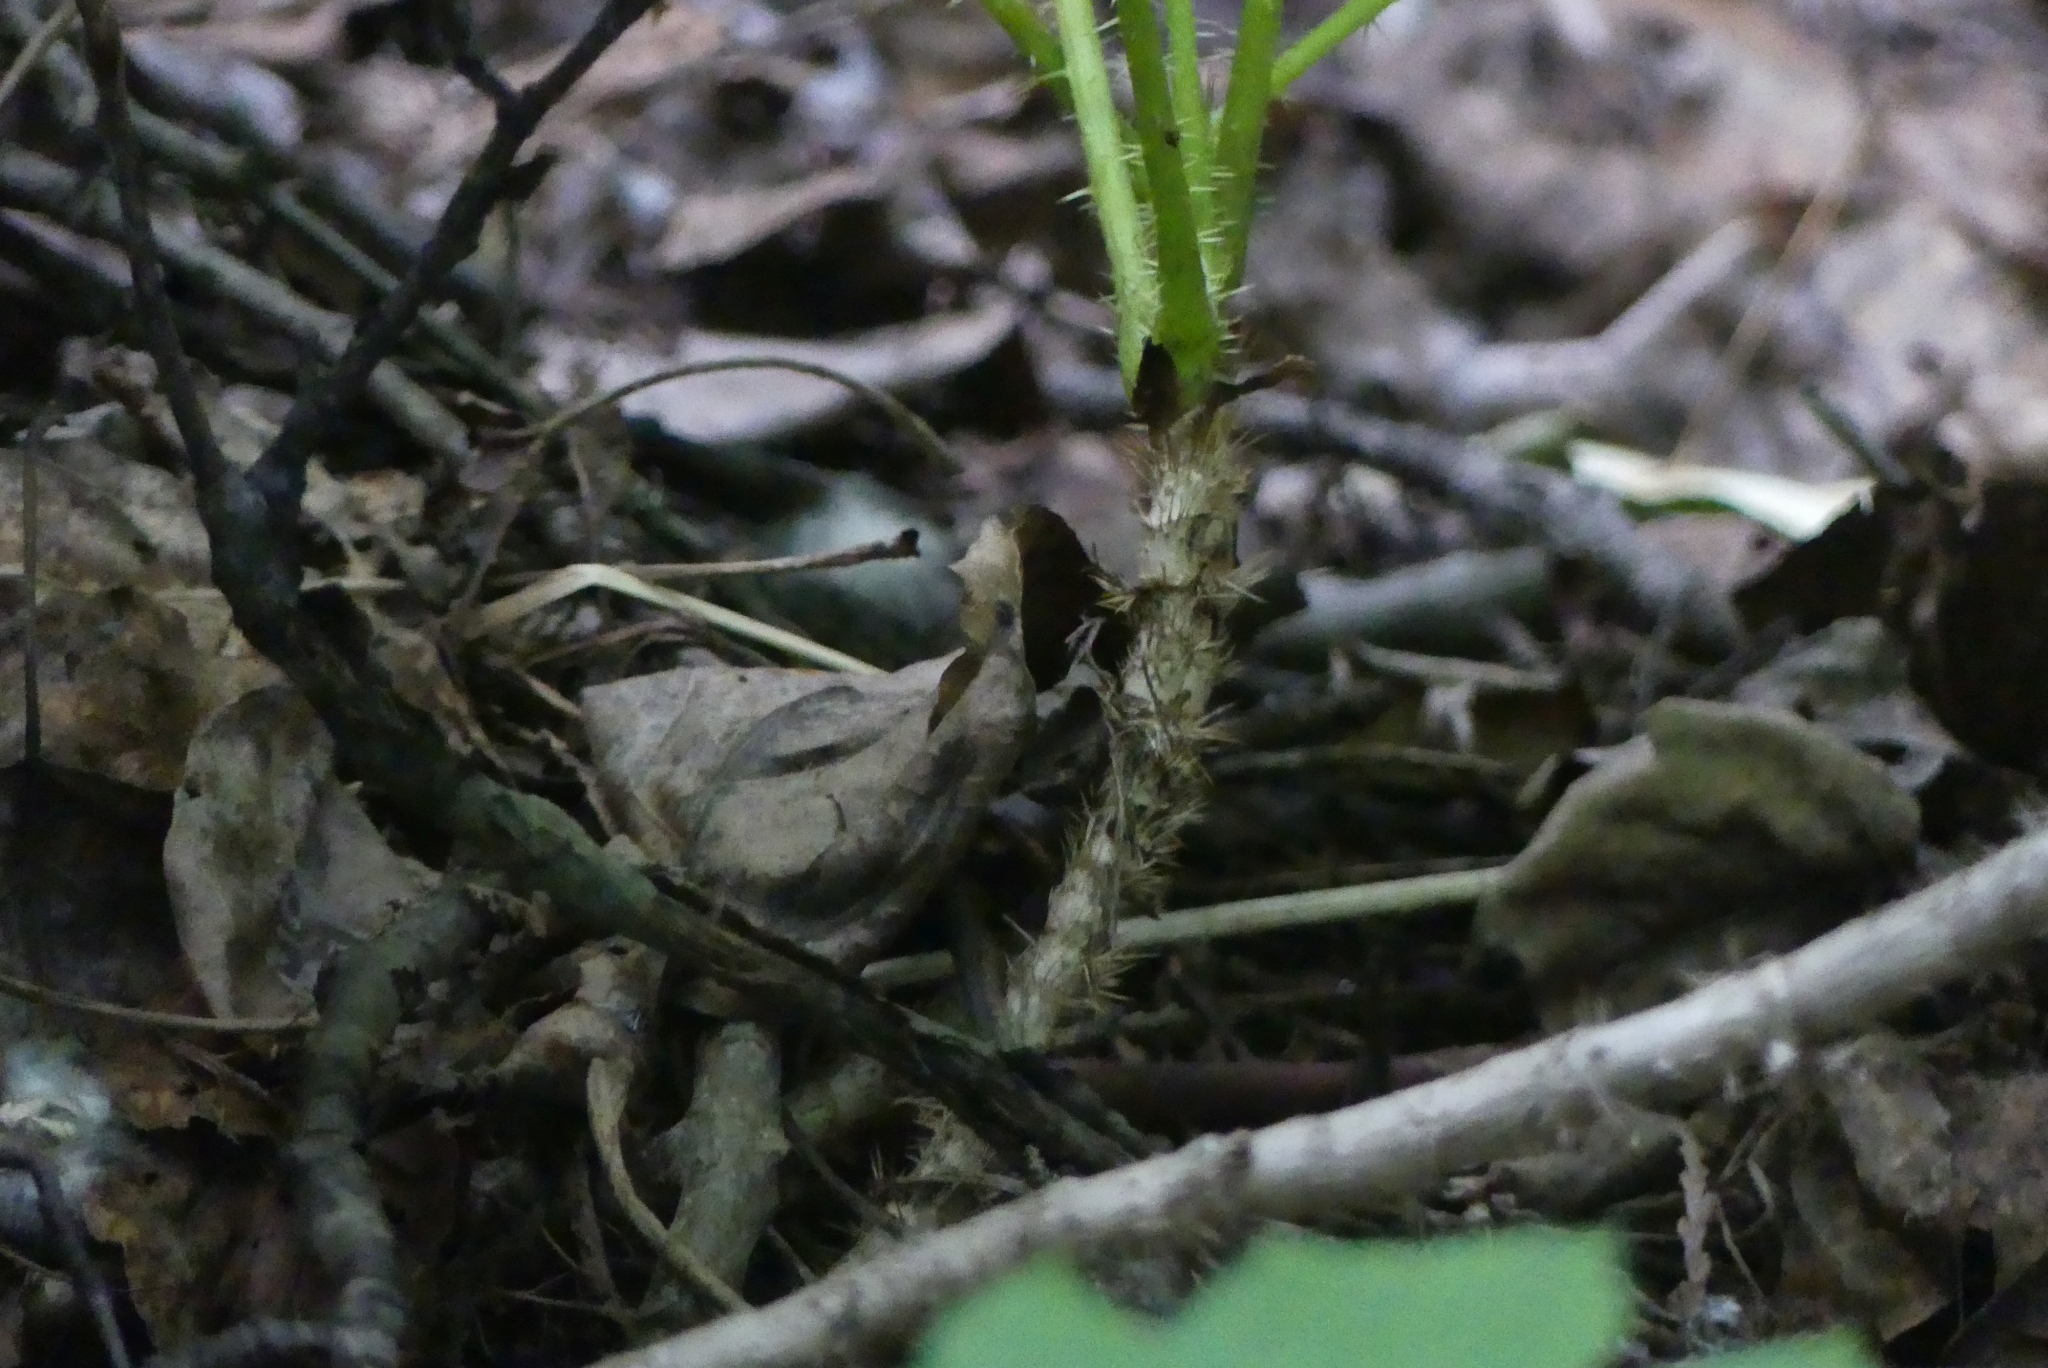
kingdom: Plantae
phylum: Tracheophyta
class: Magnoliopsida
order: Apiales
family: Araliaceae
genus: Oplopanax
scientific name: Oplopanax horridus
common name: Devil's walking-stick
